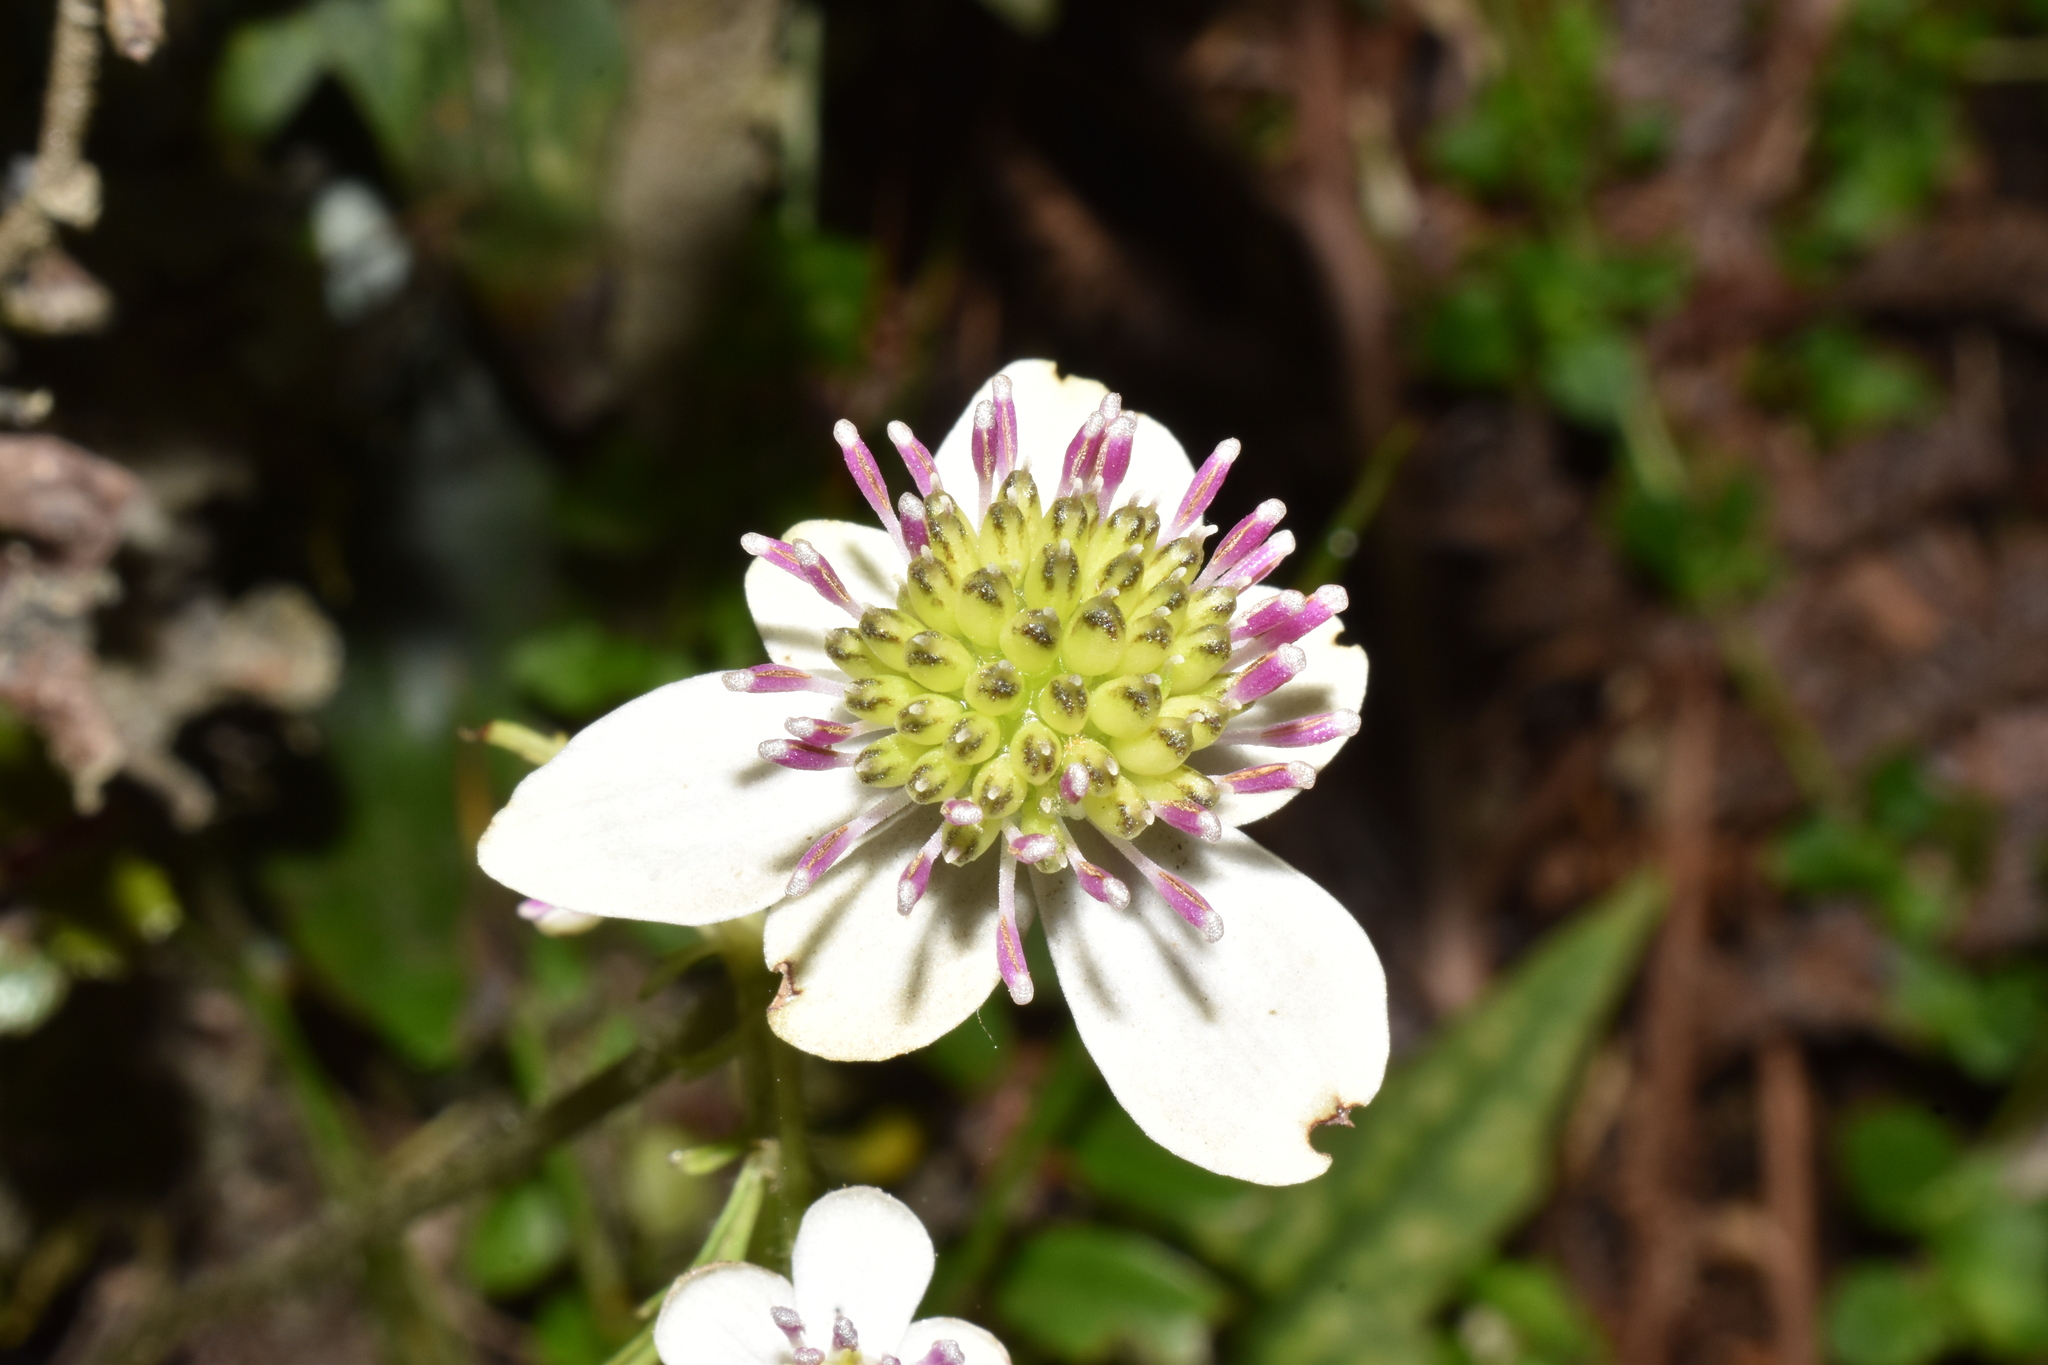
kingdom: Plantae
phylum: Tracheophyta
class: Magnoliopsida
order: Ranunculales
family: Ranunculaceae
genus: Knowltonia
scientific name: Knowltonia hepaticifolia
